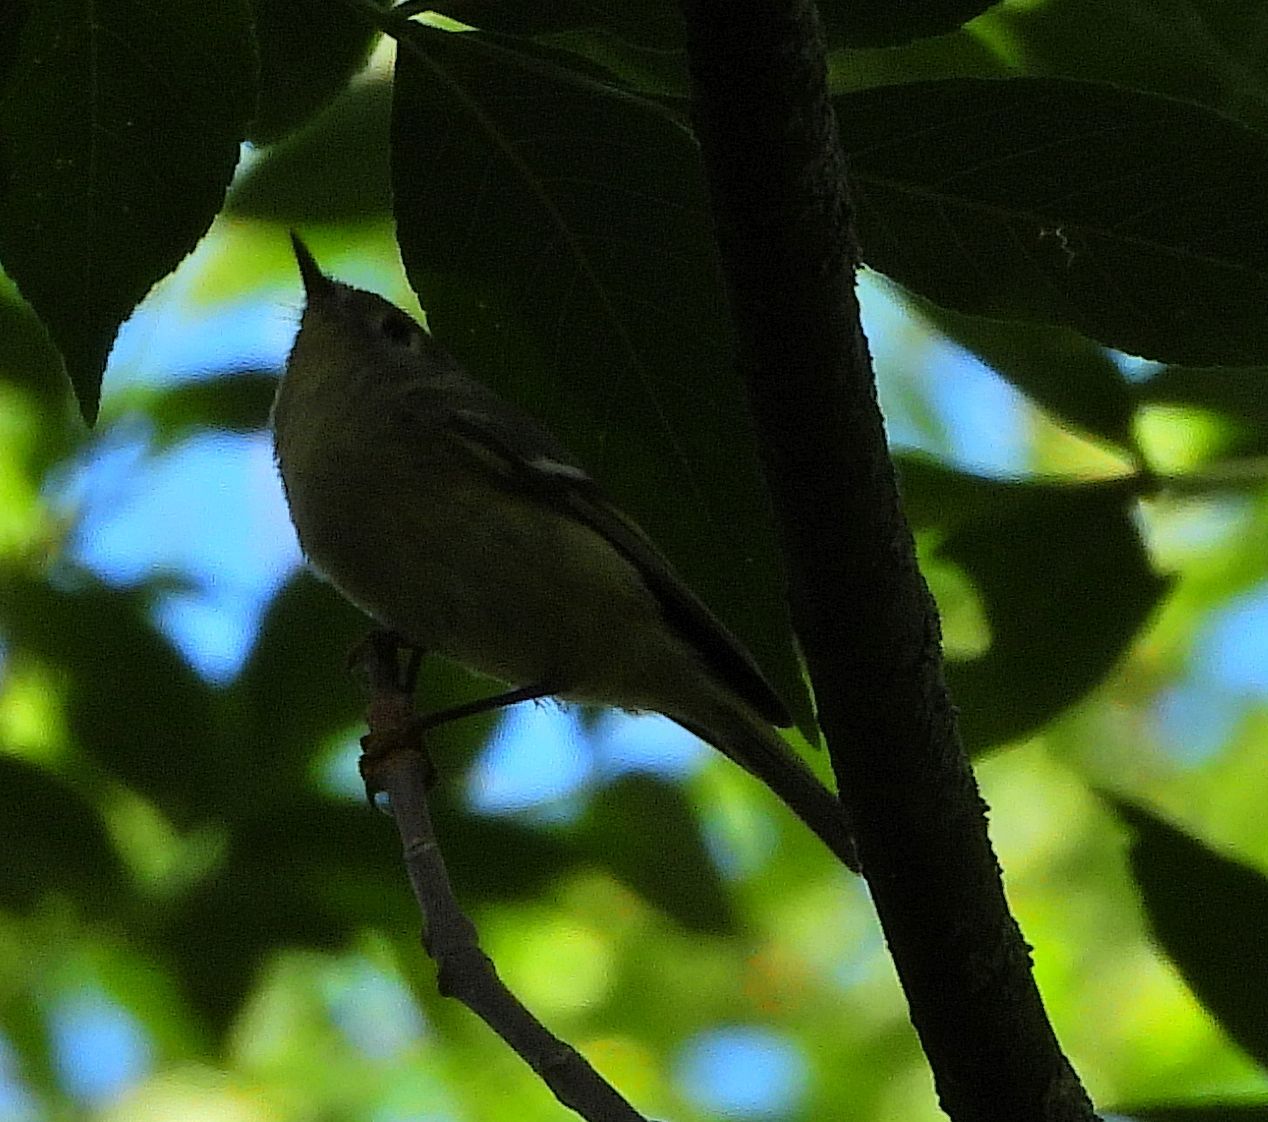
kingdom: Animalia
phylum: Chordata
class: Aves
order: Passeriformes
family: Regulidae
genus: Regulus
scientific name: Regulus calendula
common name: Ruby-crowned kinglet
